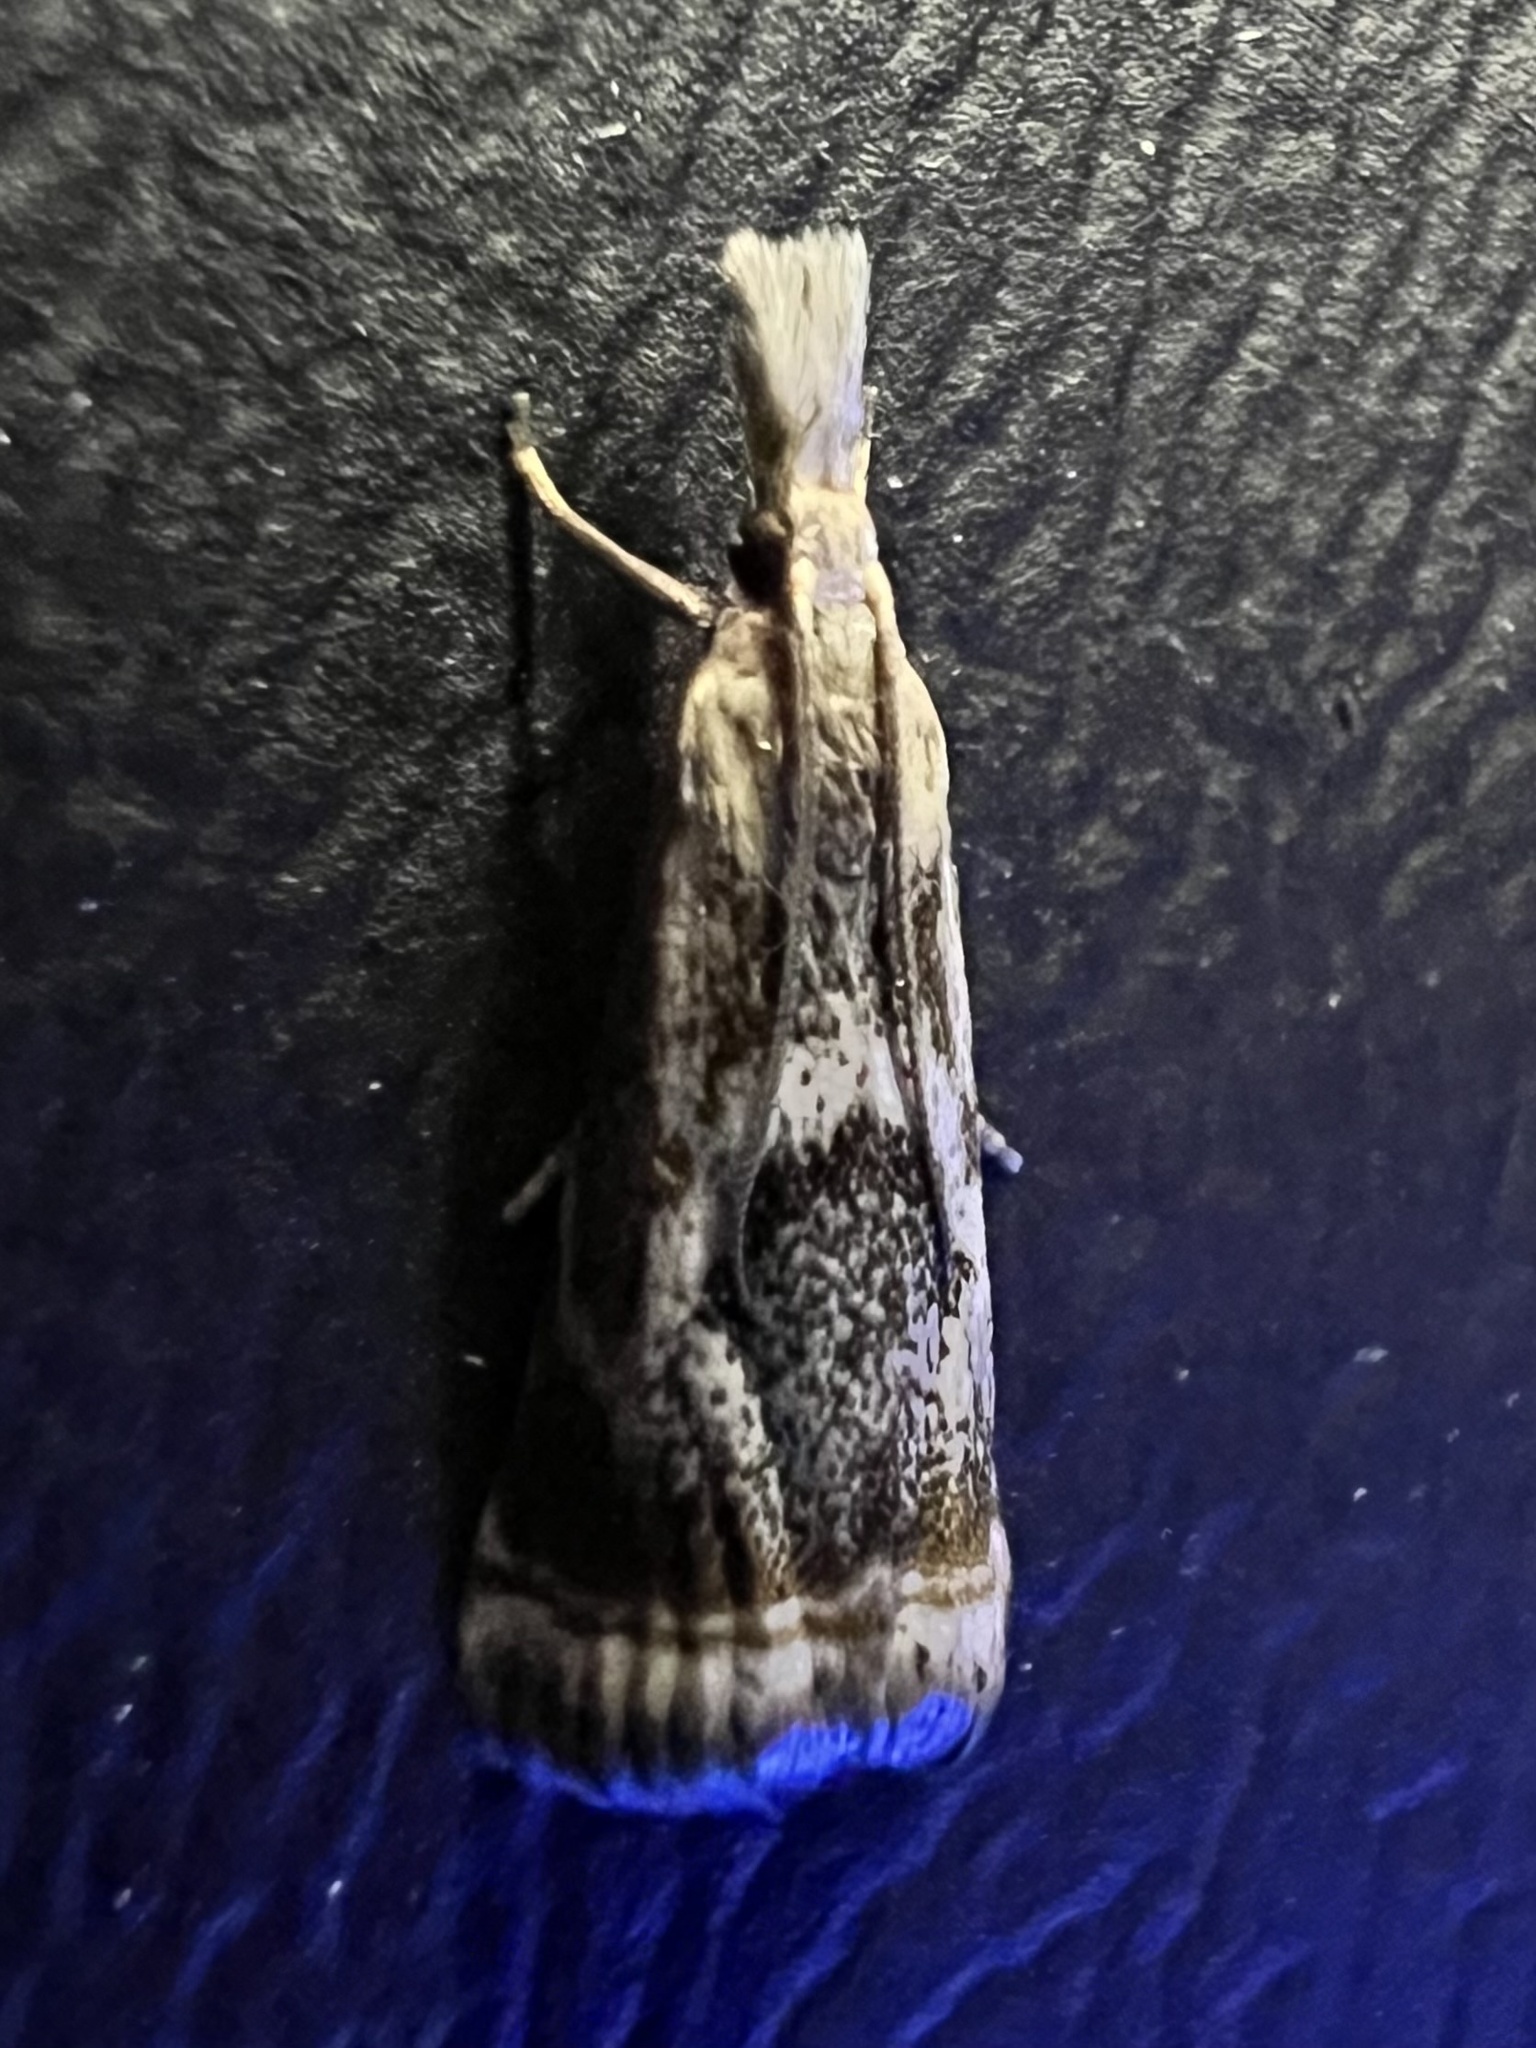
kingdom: Animalia
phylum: Arthropoda
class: Insecta
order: Lepidoptera
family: Crambidae
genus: Microcrambus
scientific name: Microcrambus elegans
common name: Elegant grass-veneer
